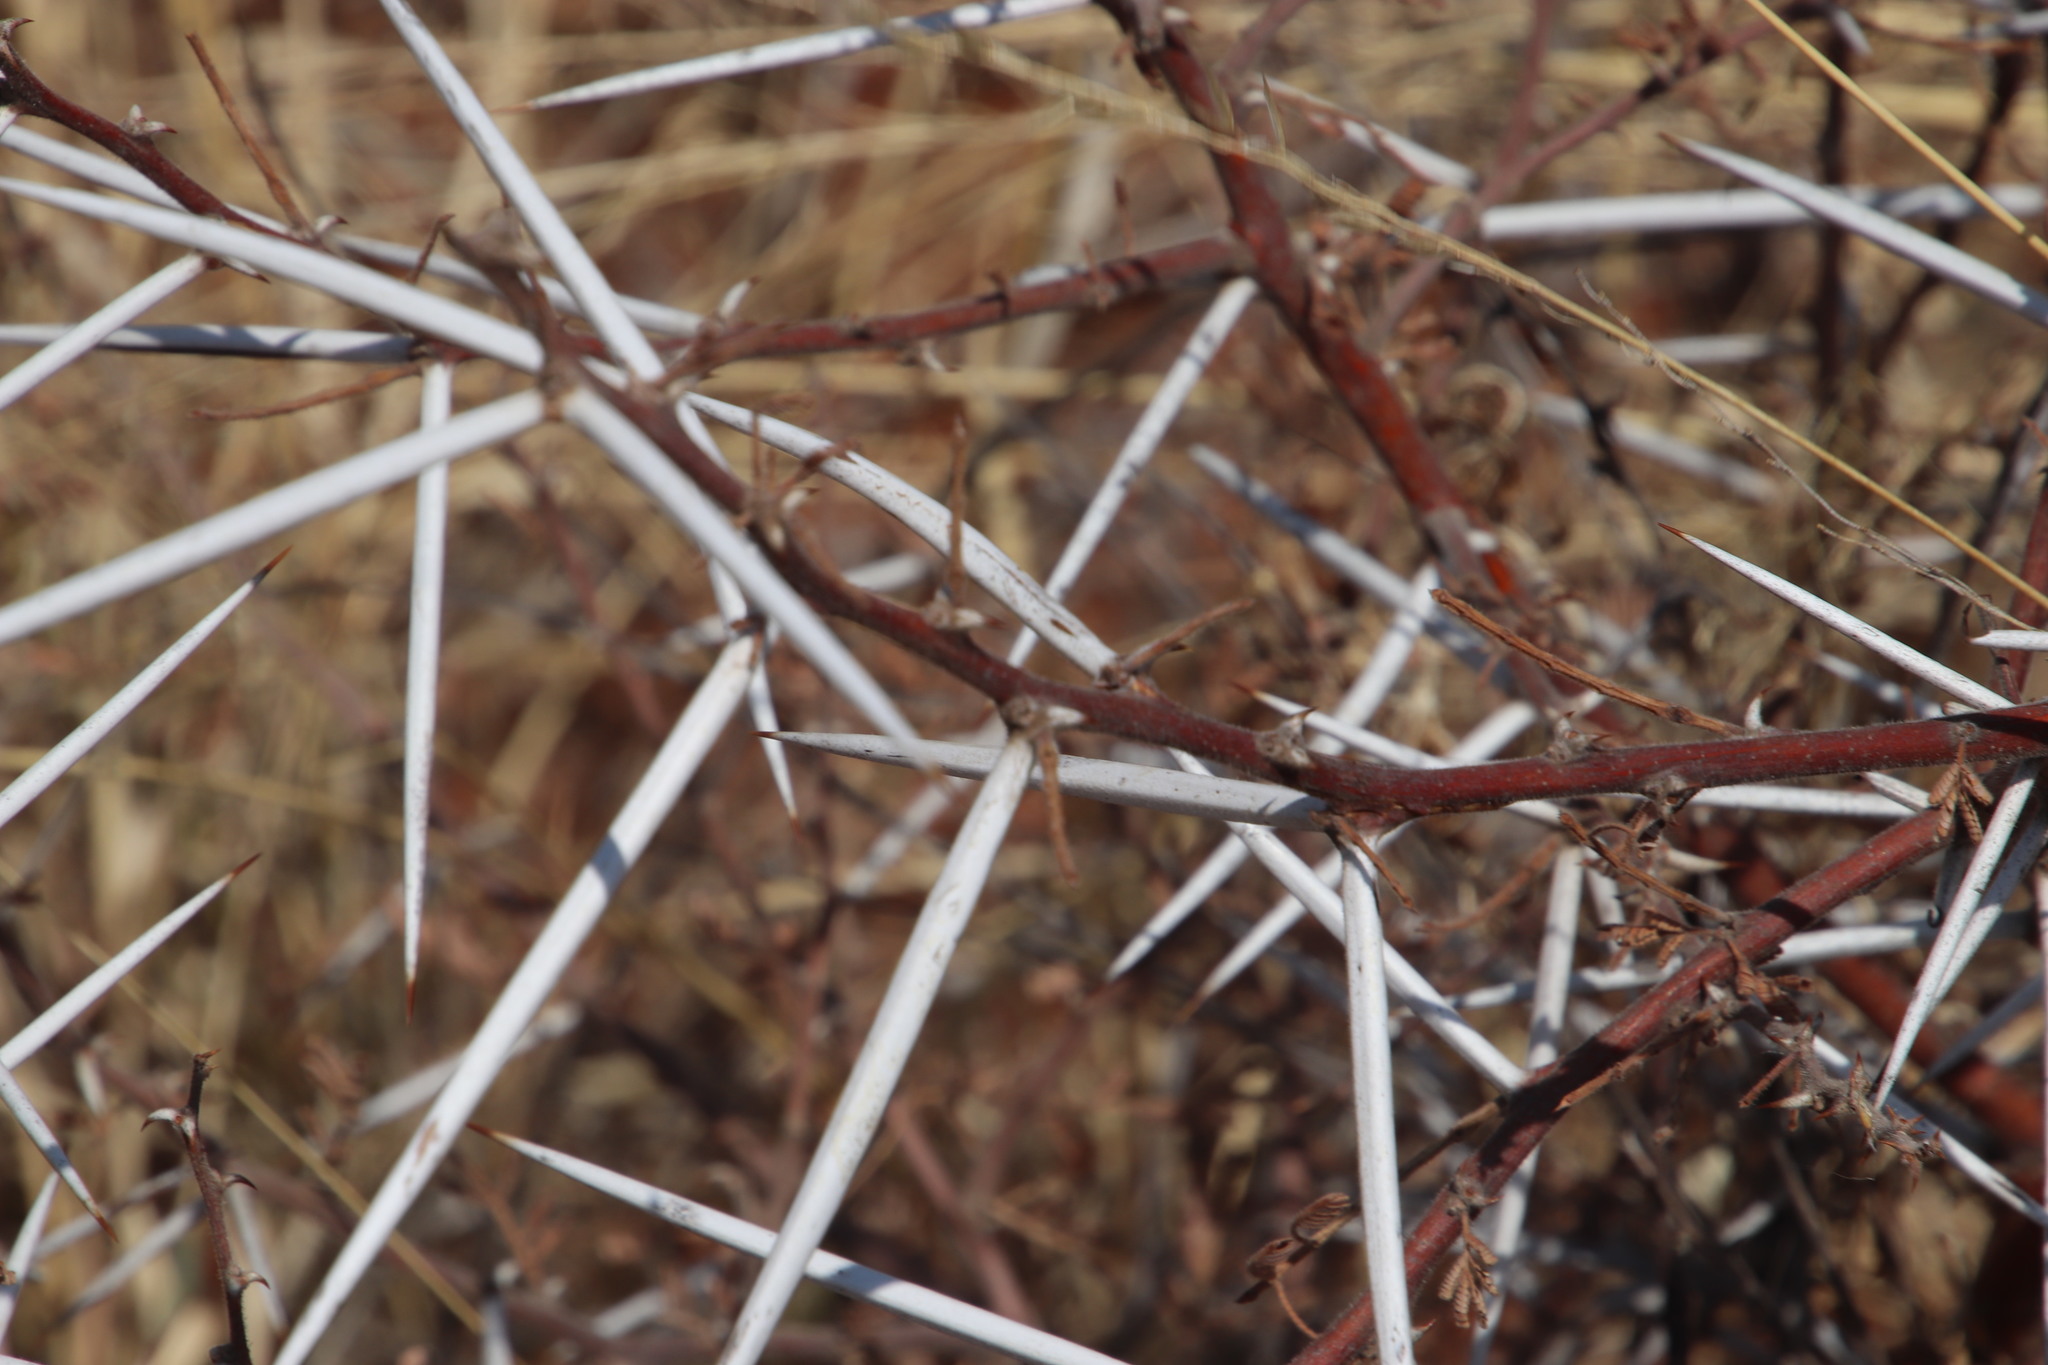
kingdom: Plantae
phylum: Tracheophyta
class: Magnoliopsida
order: Fabales
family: Fabaceae
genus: Vachellia
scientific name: Vachellia tortilis
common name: Umbrella thorn acacia
